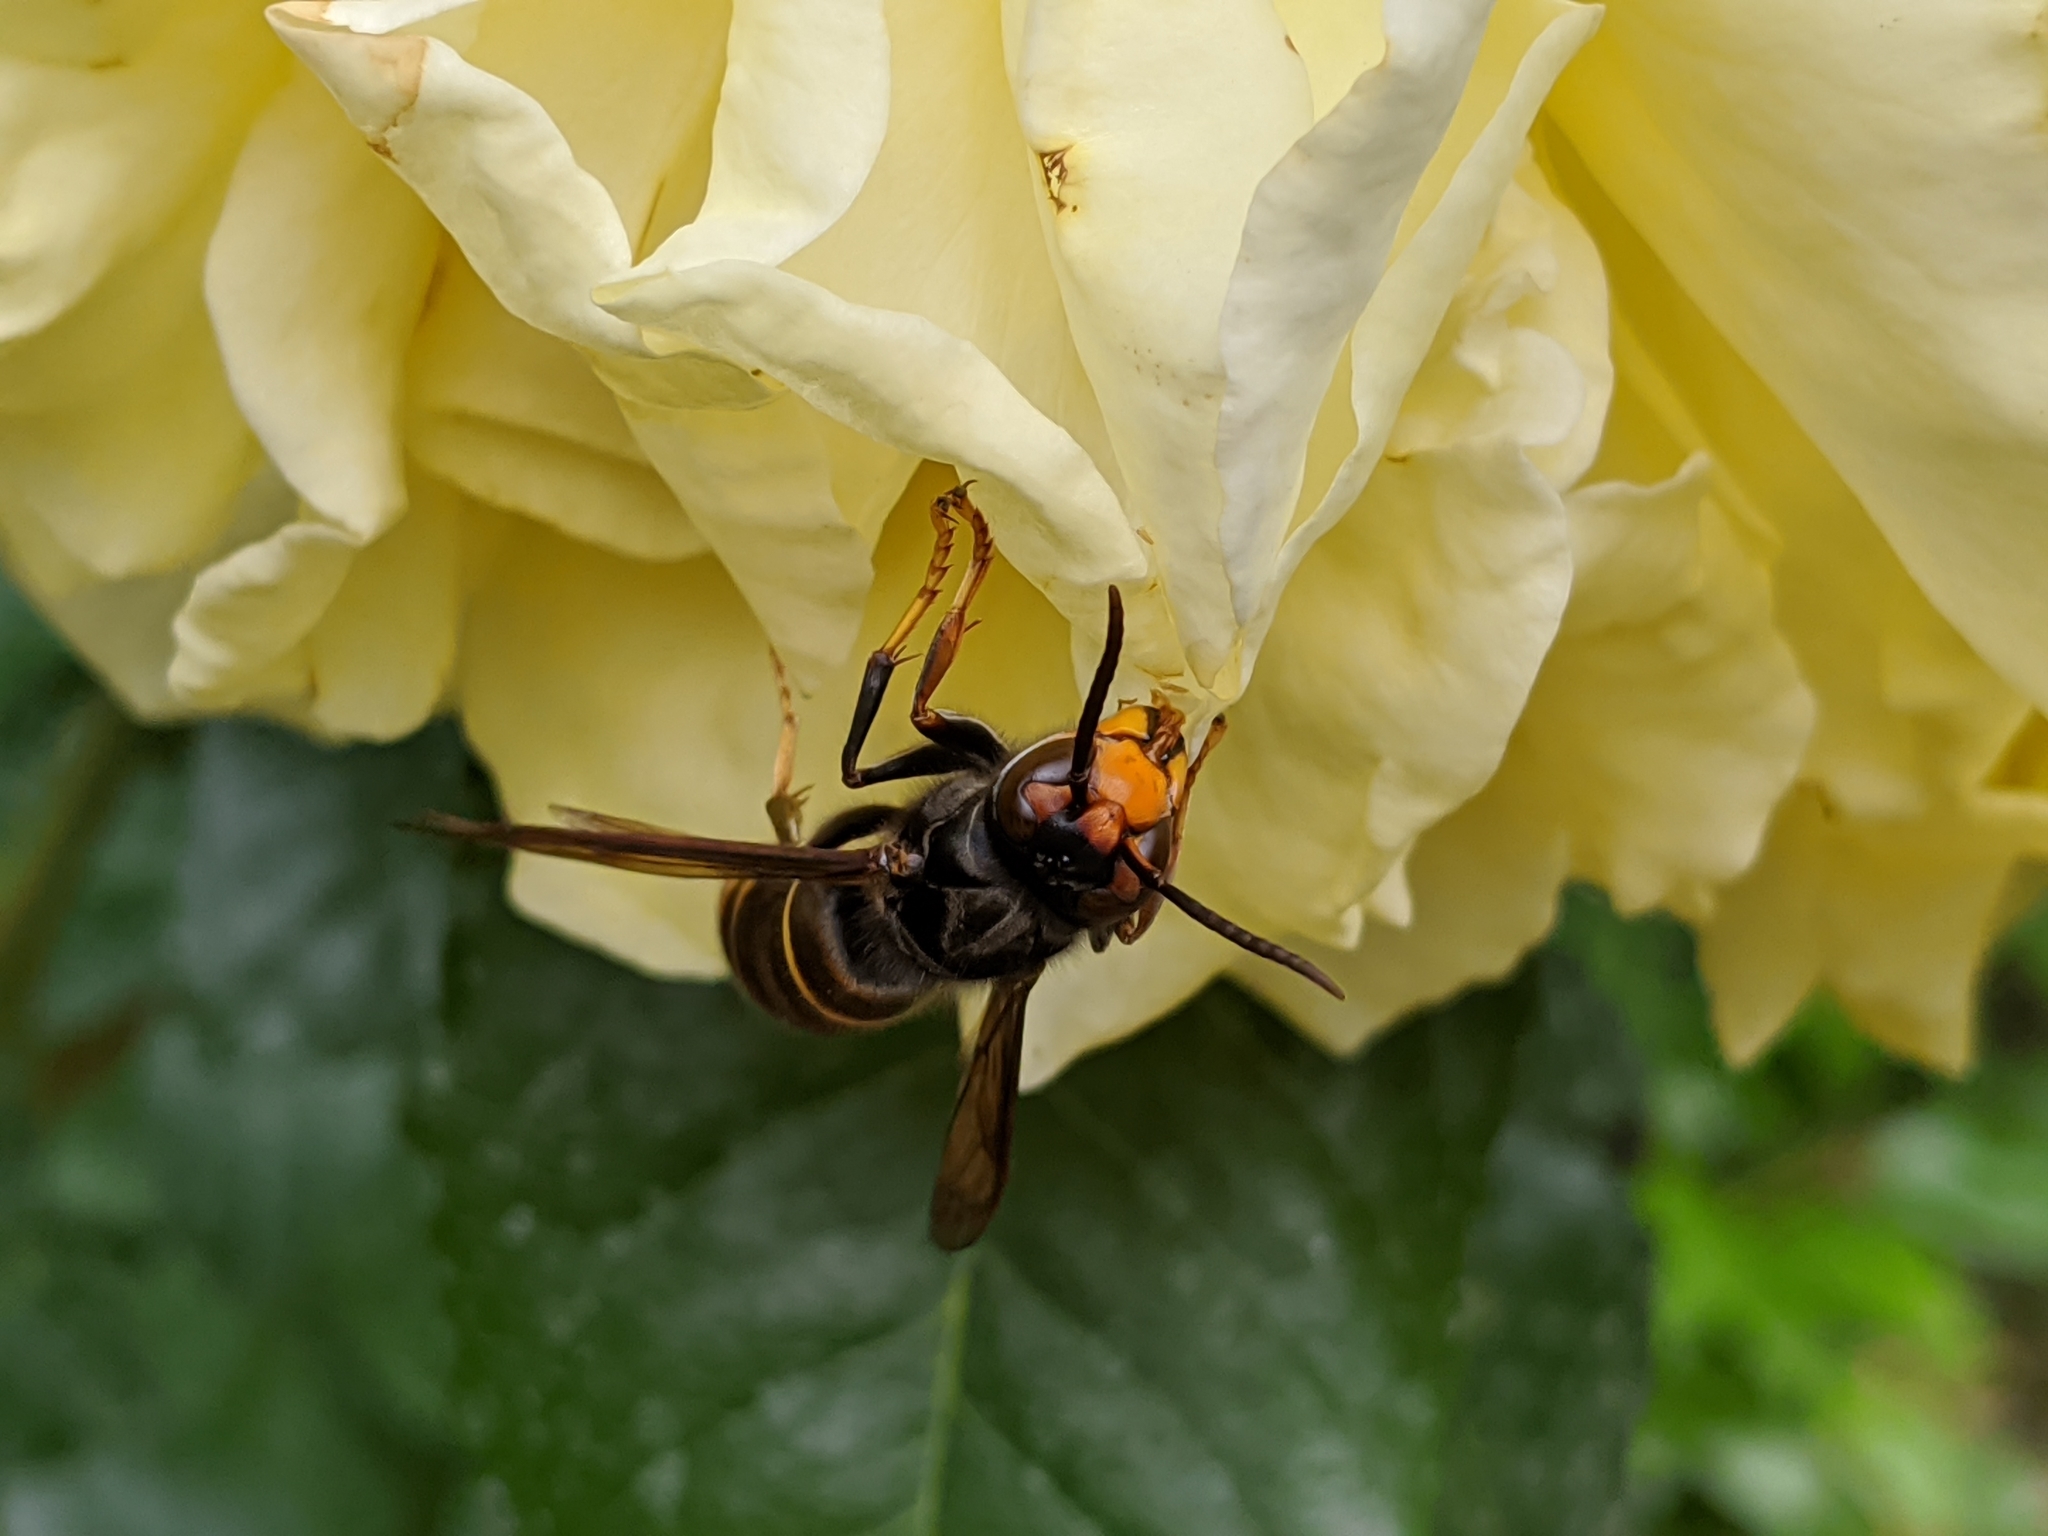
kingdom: Animalia
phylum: Arthropoda
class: Insecta
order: Hymenoptera
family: Vespidae
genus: Vespa
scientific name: Vespa velutina
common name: Asian hornet
